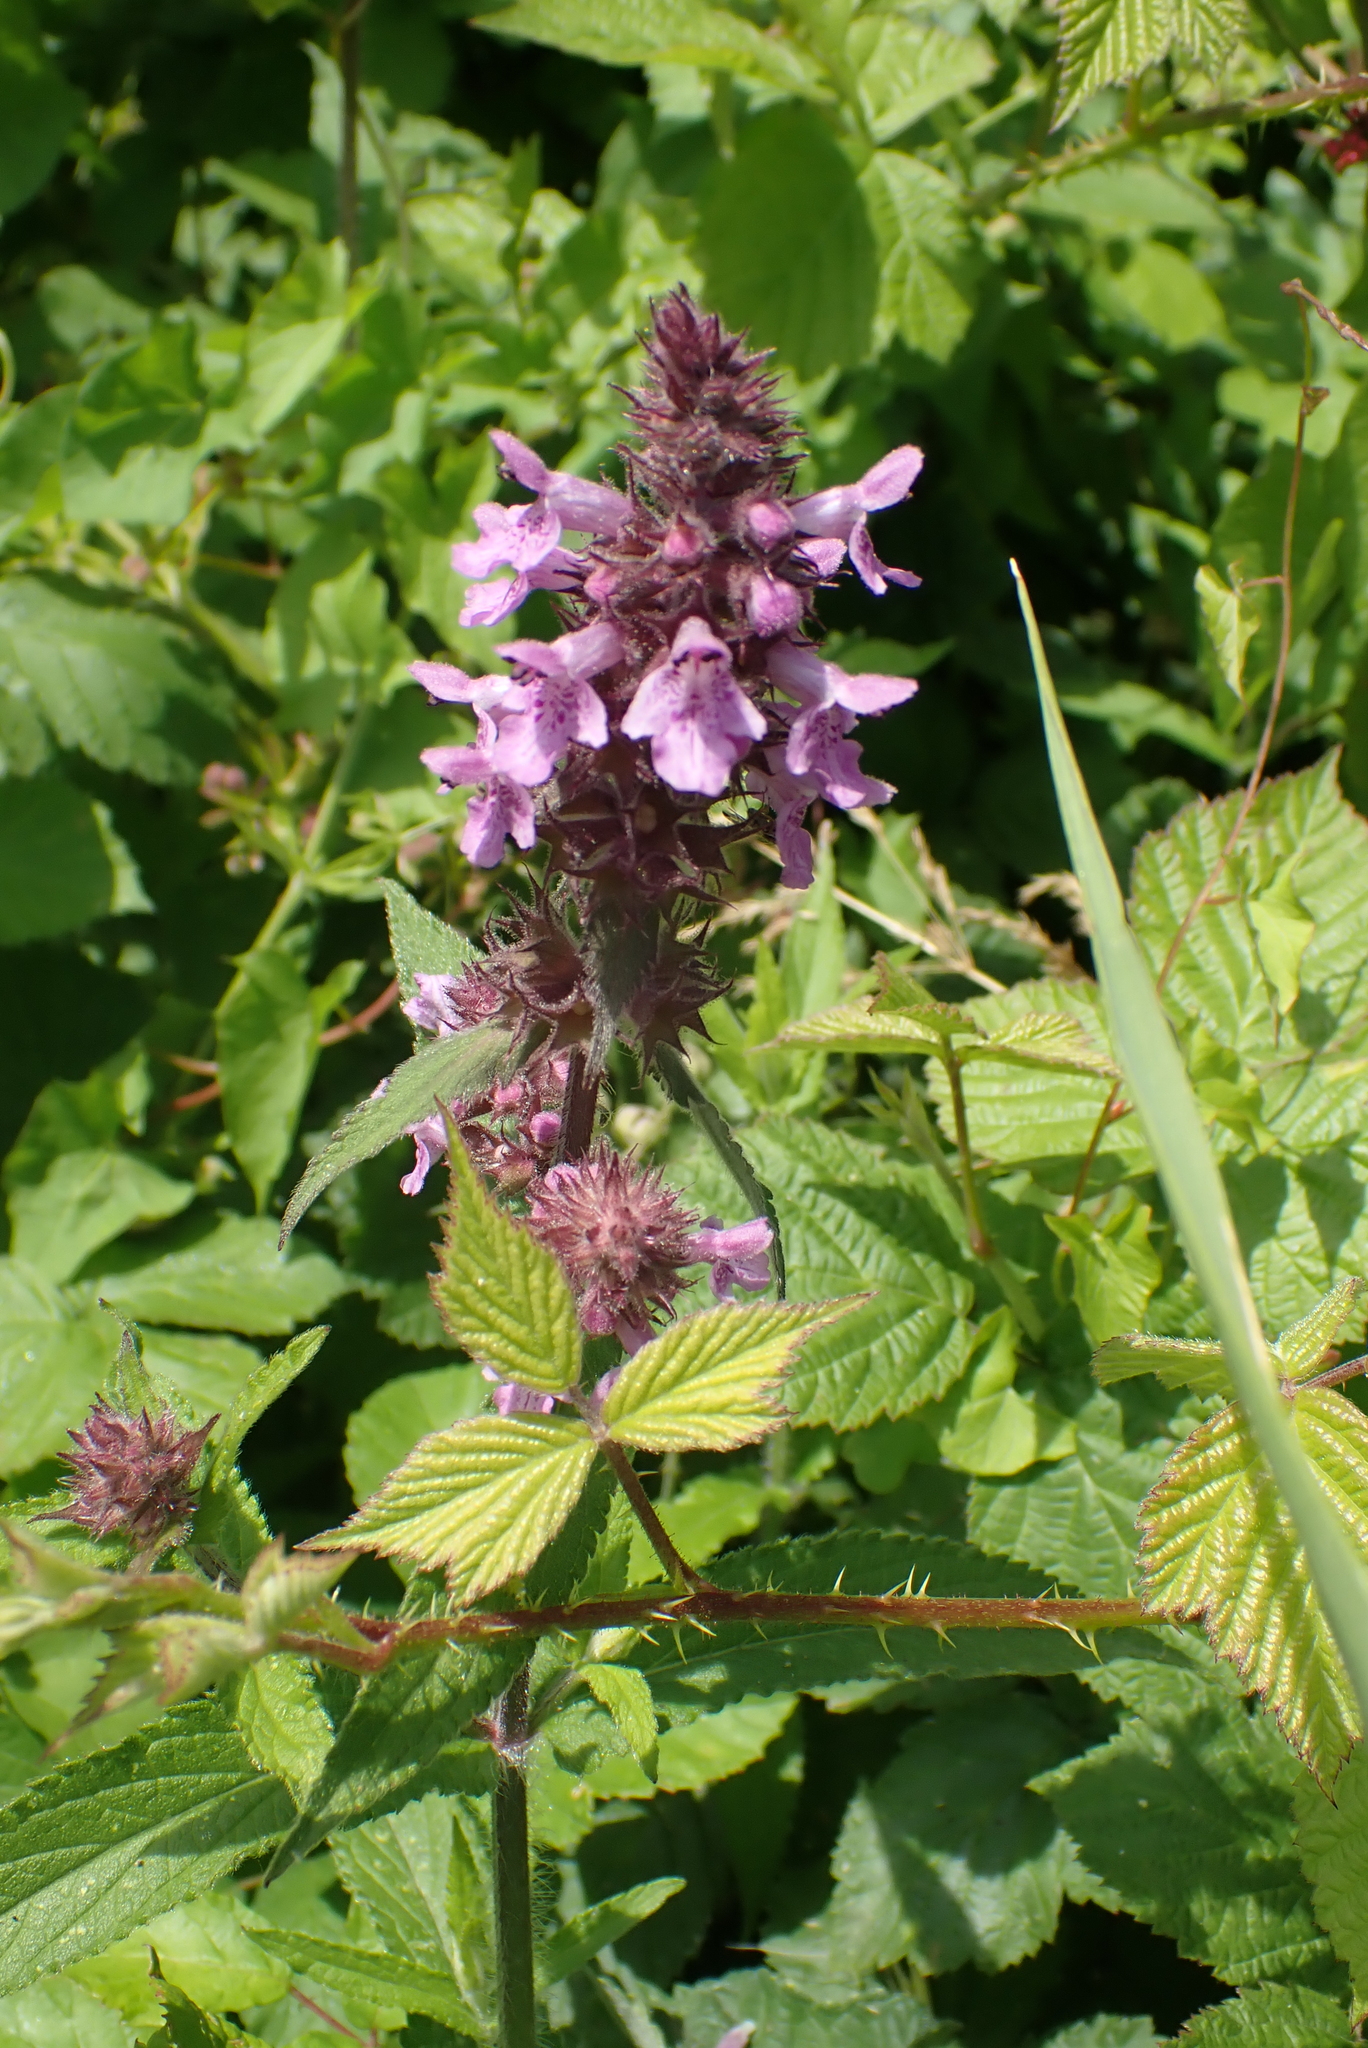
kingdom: Plantae
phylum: Tracheophyta
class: Magnoliopsida
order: Lamiales
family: Lamiaceae
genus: Stachys
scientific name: Stachys palustris
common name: Marsh woundwort
